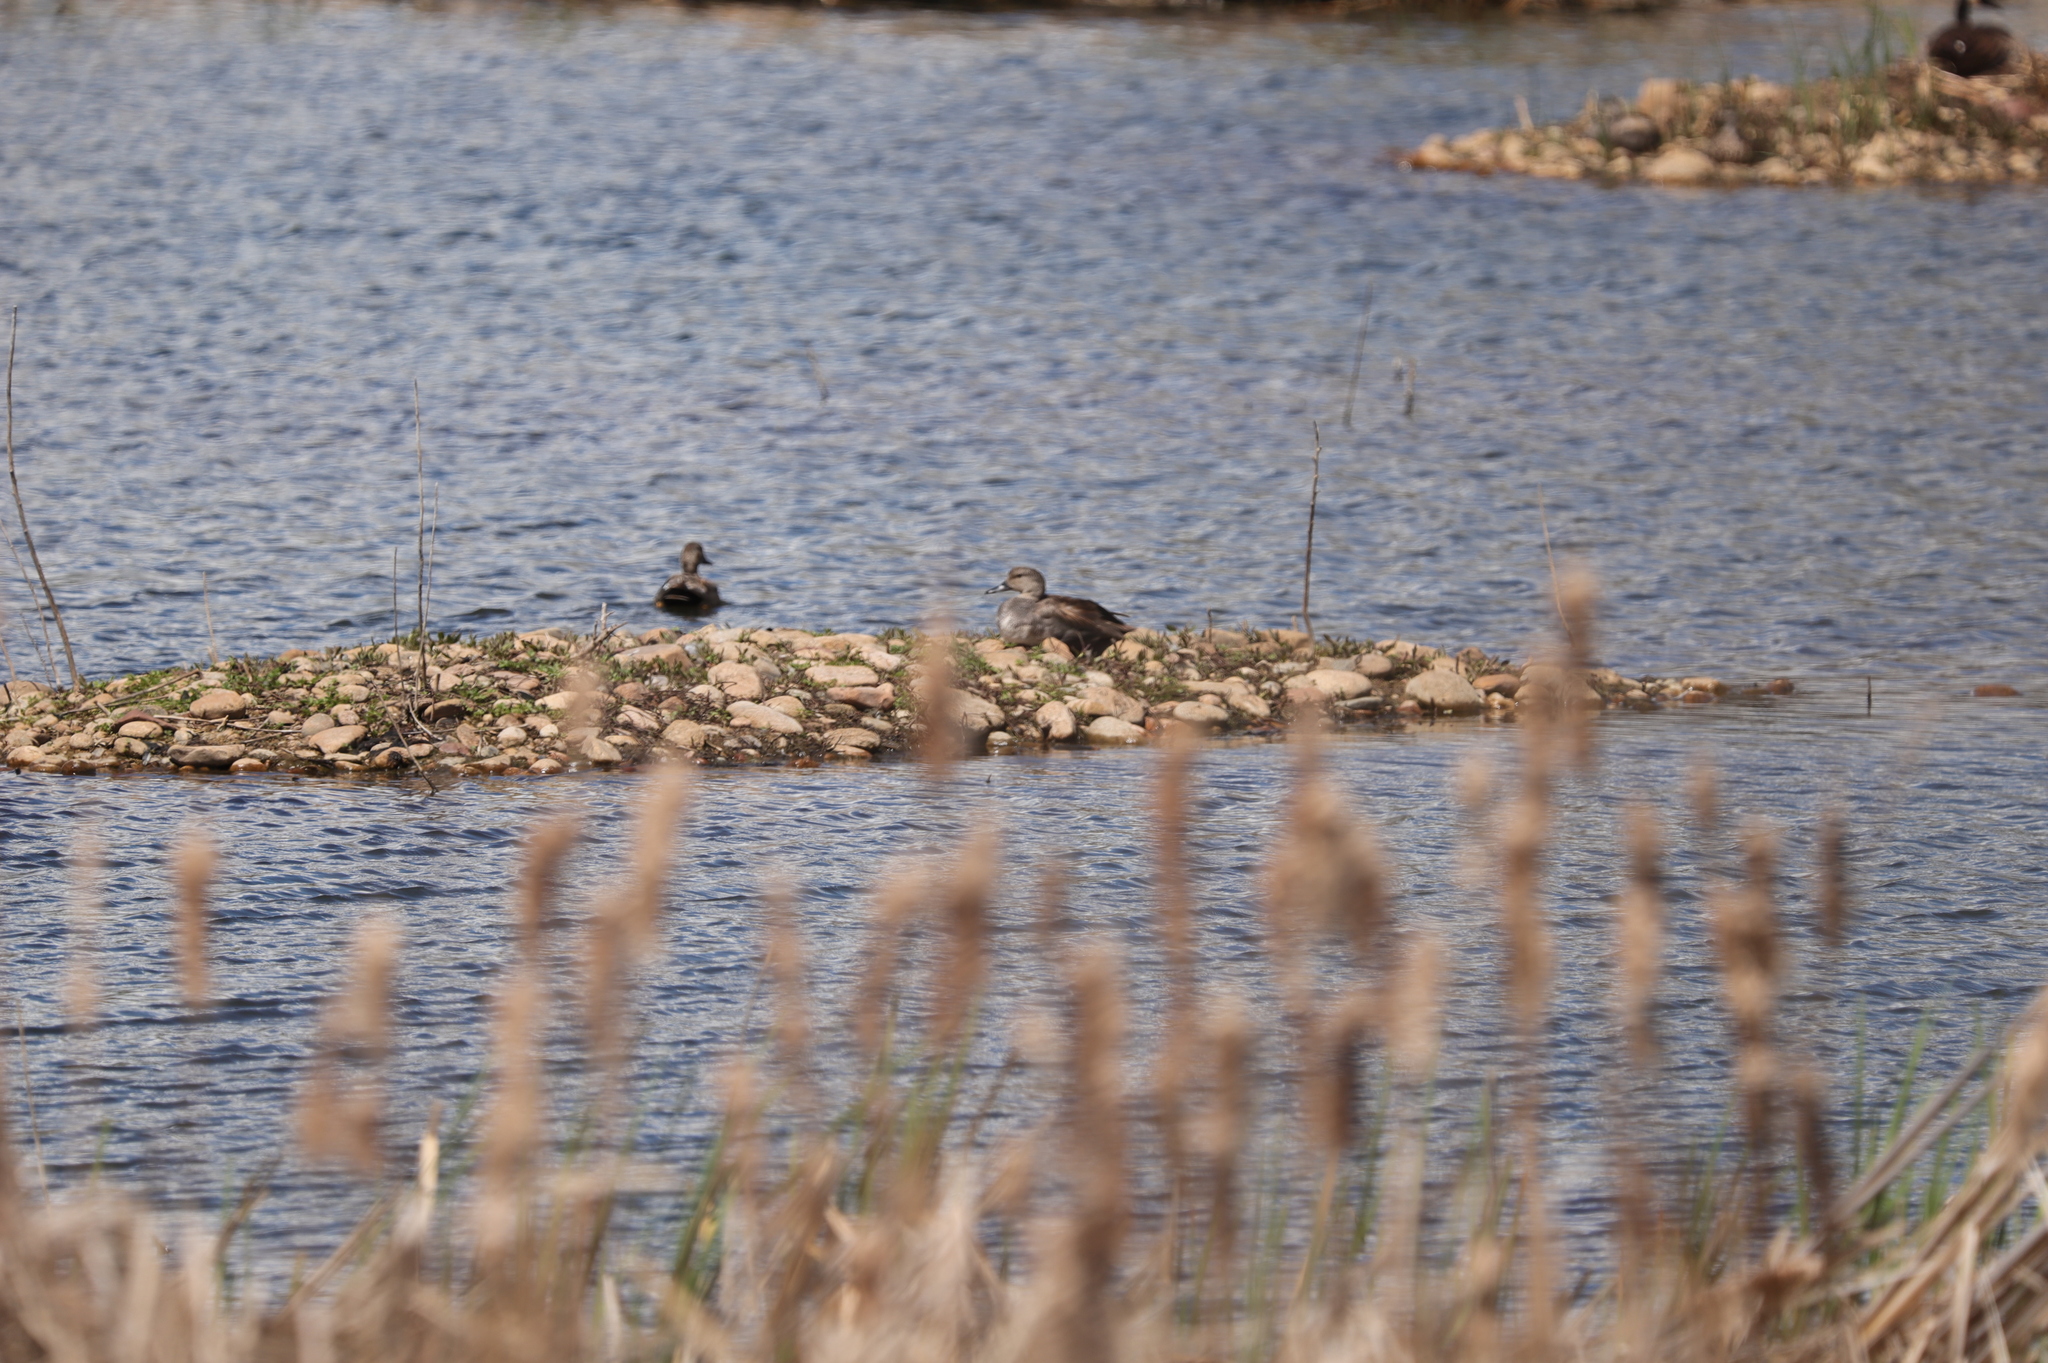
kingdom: Animalia
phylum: Chordata
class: Aves
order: Anseriformes
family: Anatidae
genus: Mareca
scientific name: Mareca strepera
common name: Gadwall
